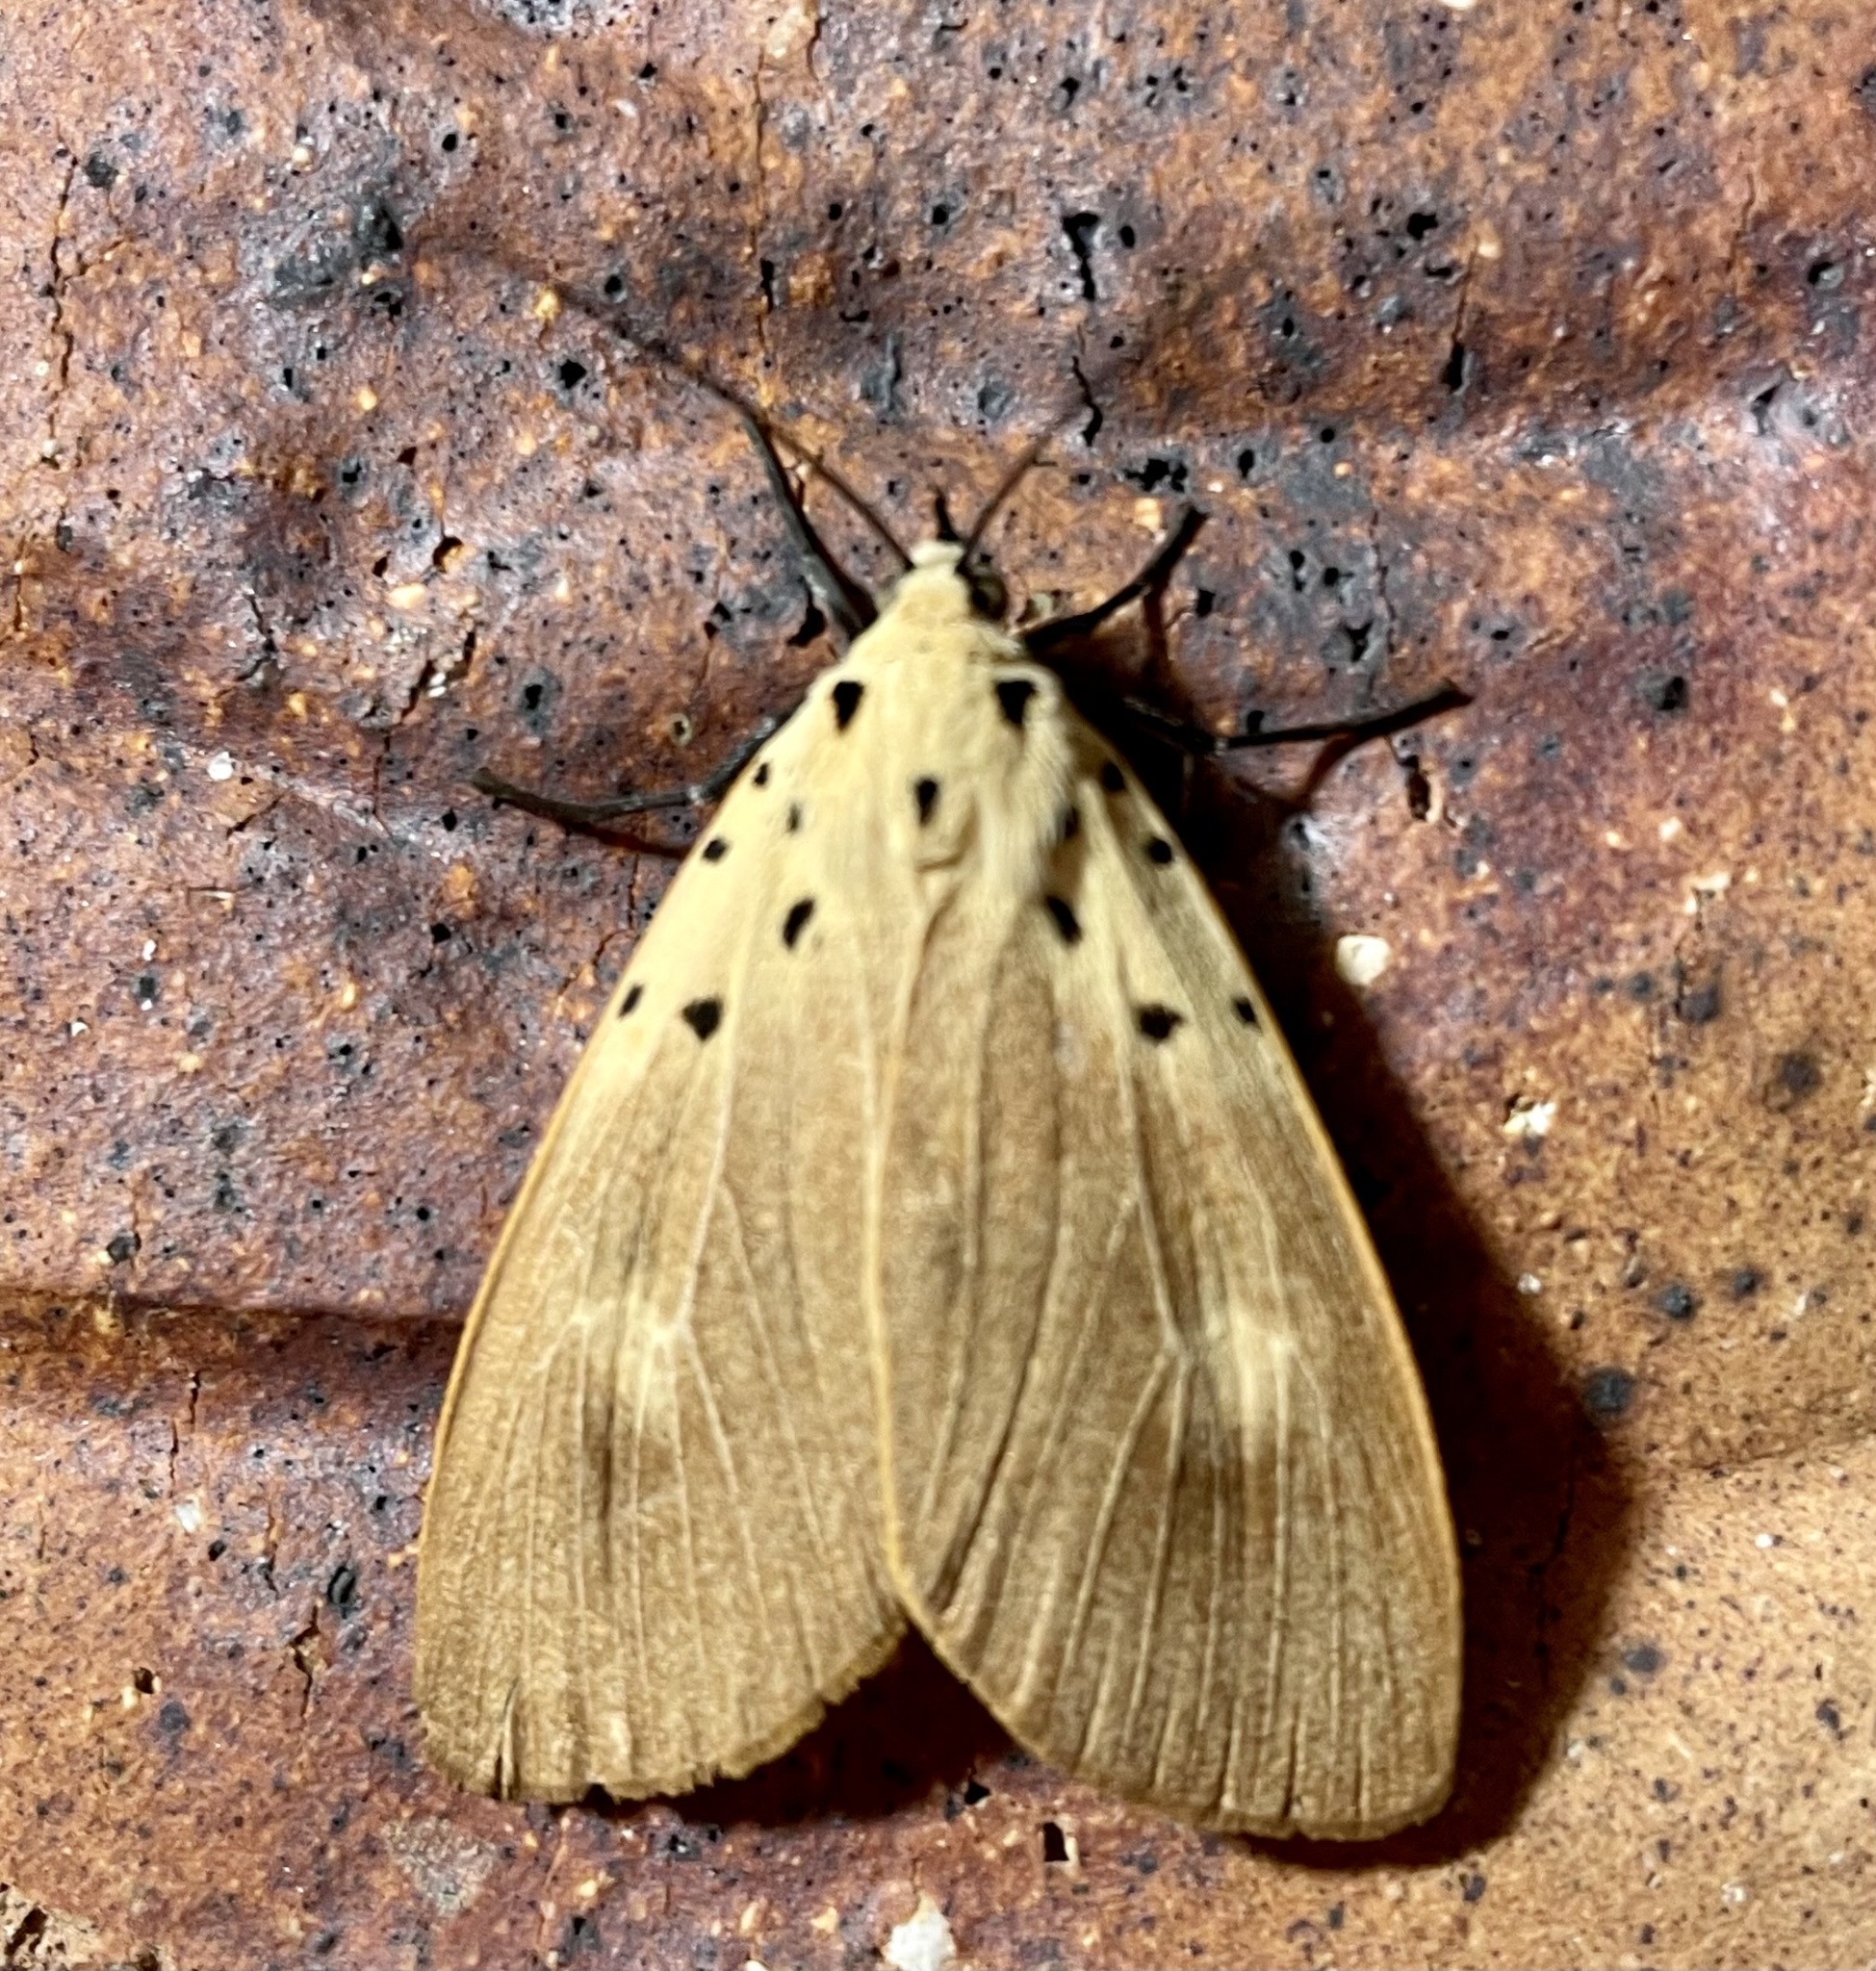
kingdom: Animalia
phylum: Arthropoda
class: Insecta
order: Lepidoptera
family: Erebidae
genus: Asota
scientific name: Asota iodamia
